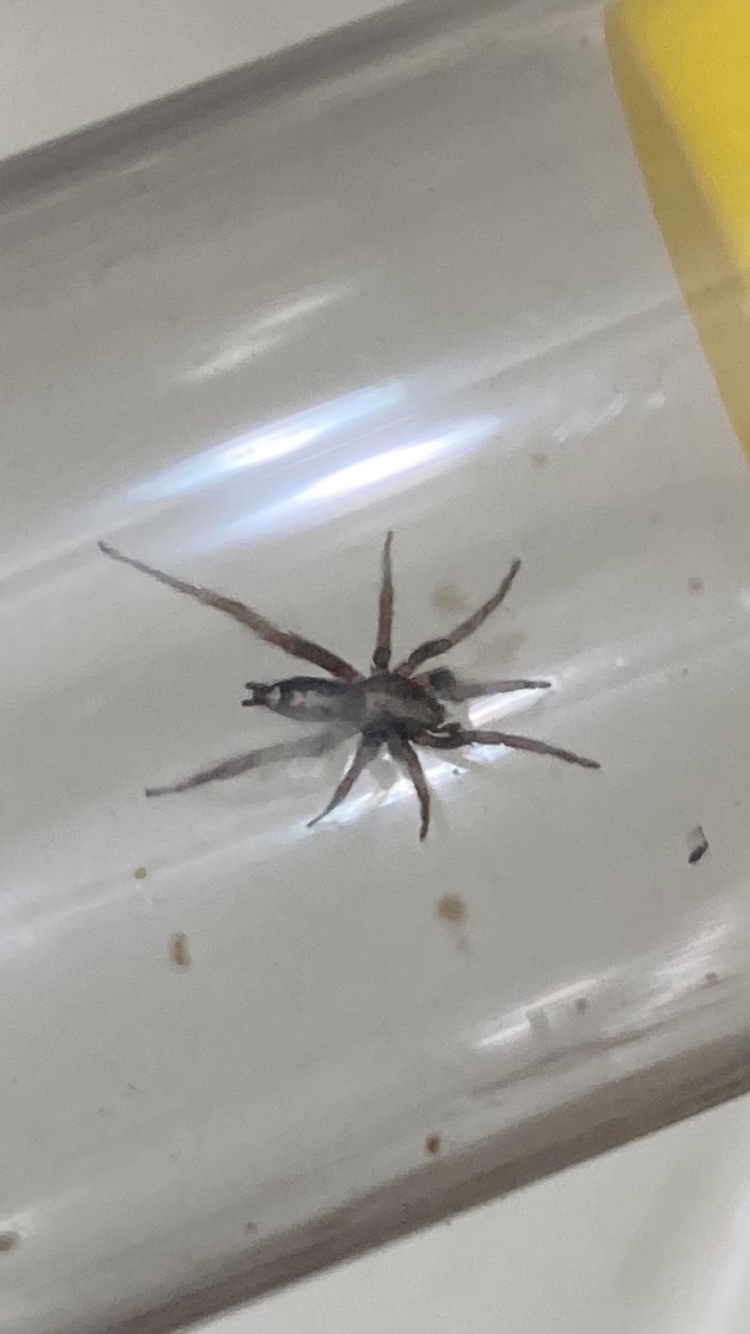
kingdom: Animalia
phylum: Arthropoda
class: Arachnida
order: Araneae
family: Gnaphosidae
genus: Herpyllus
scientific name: Herpyllus ecclesiasticus
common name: Eastern parson spider
